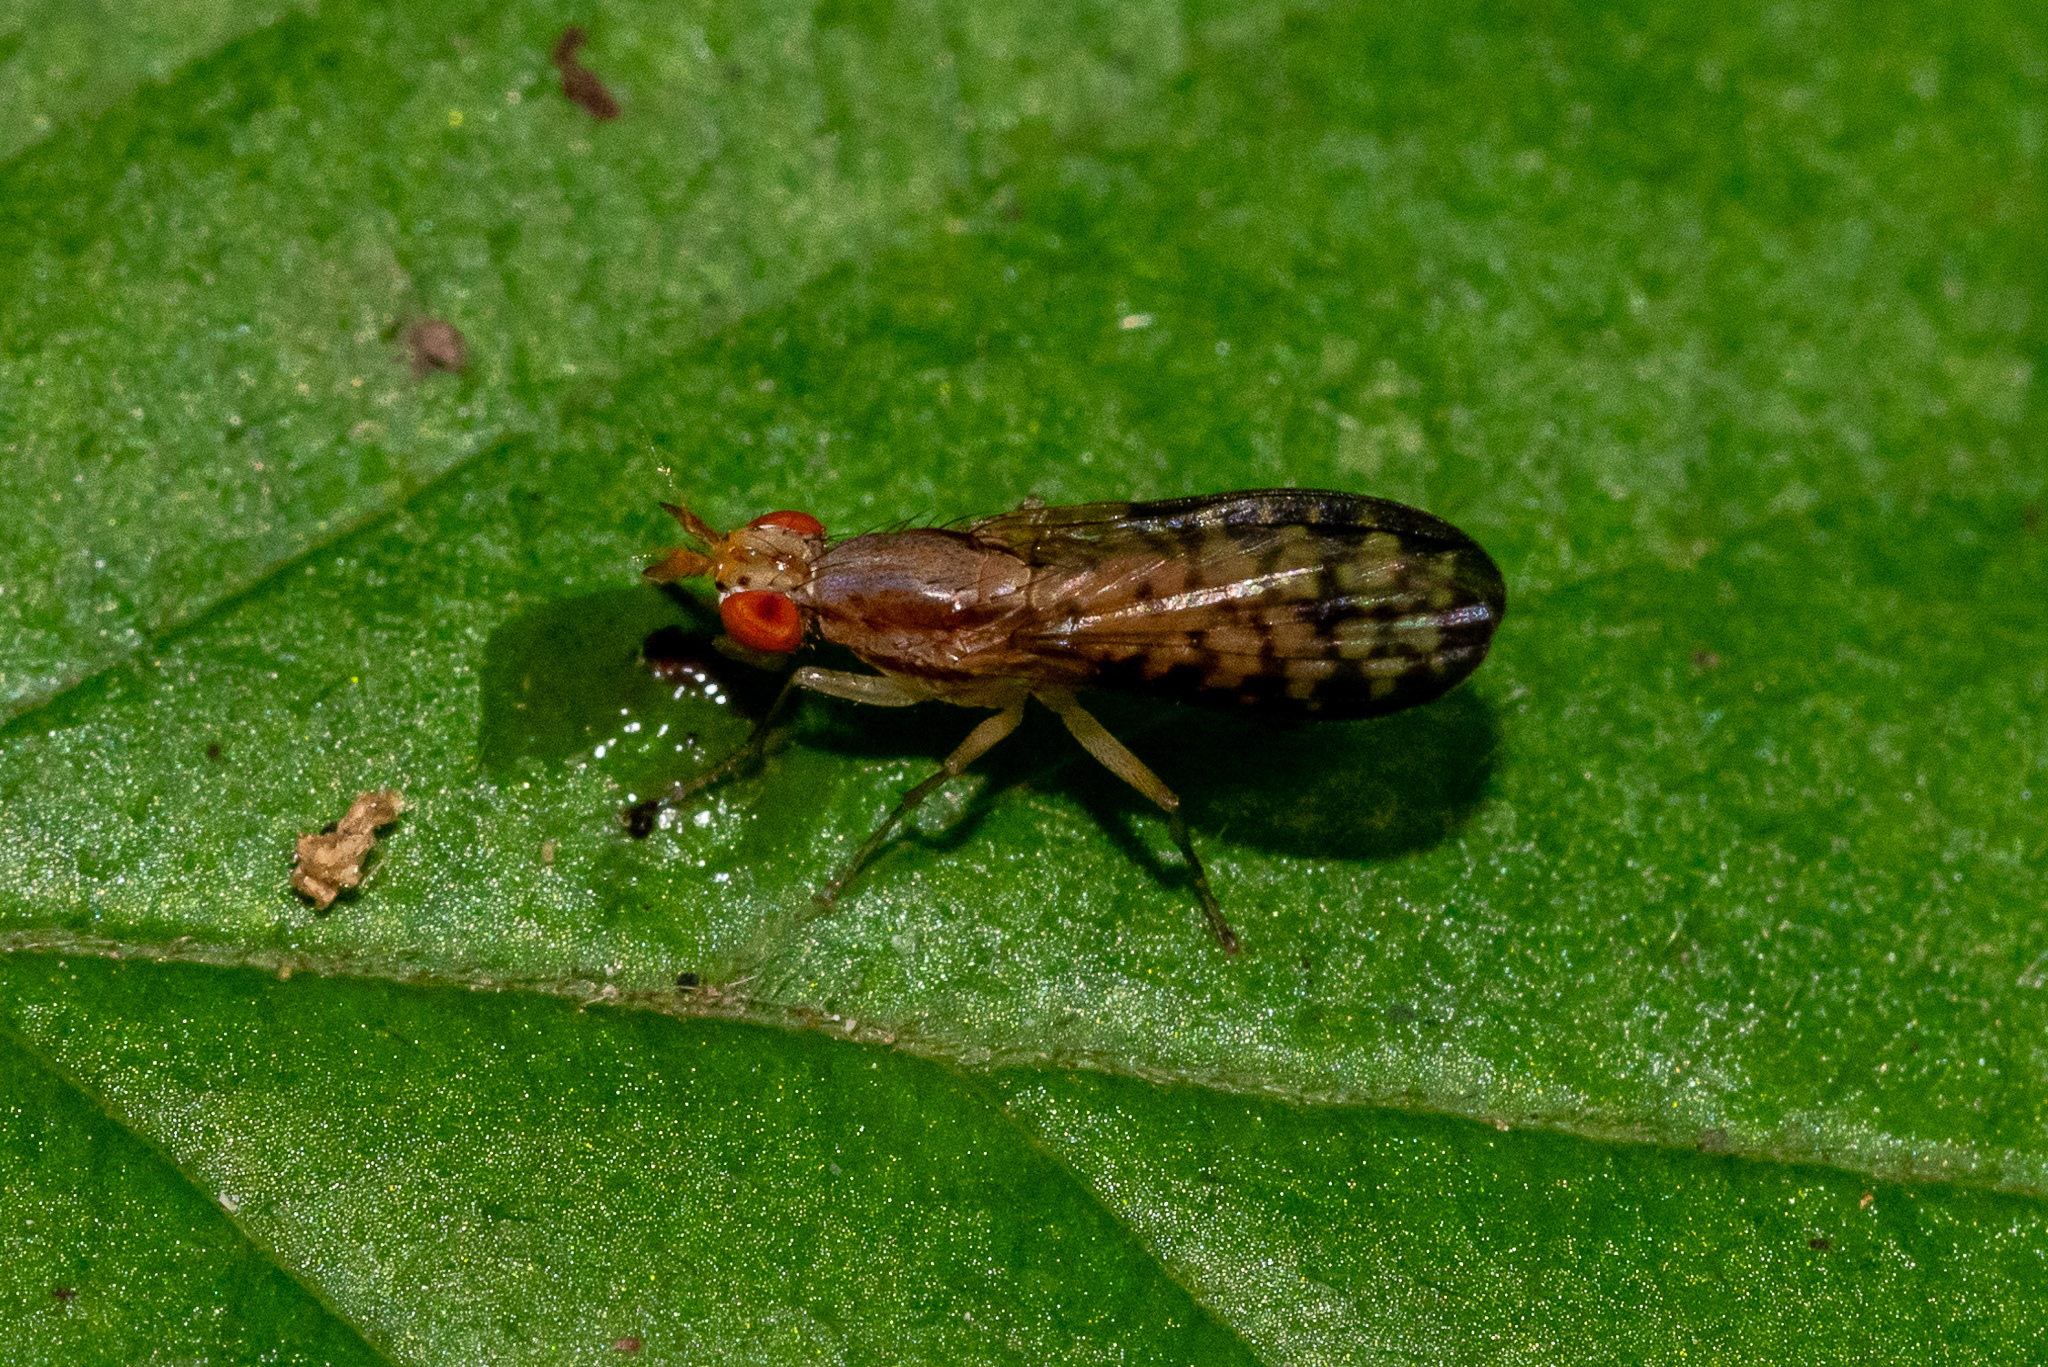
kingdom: Animalia
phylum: Arthropoda
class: Insecta
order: Diptera
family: Sciomyzidae
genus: Trypetoptera
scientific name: Trypetoptera canadensis
